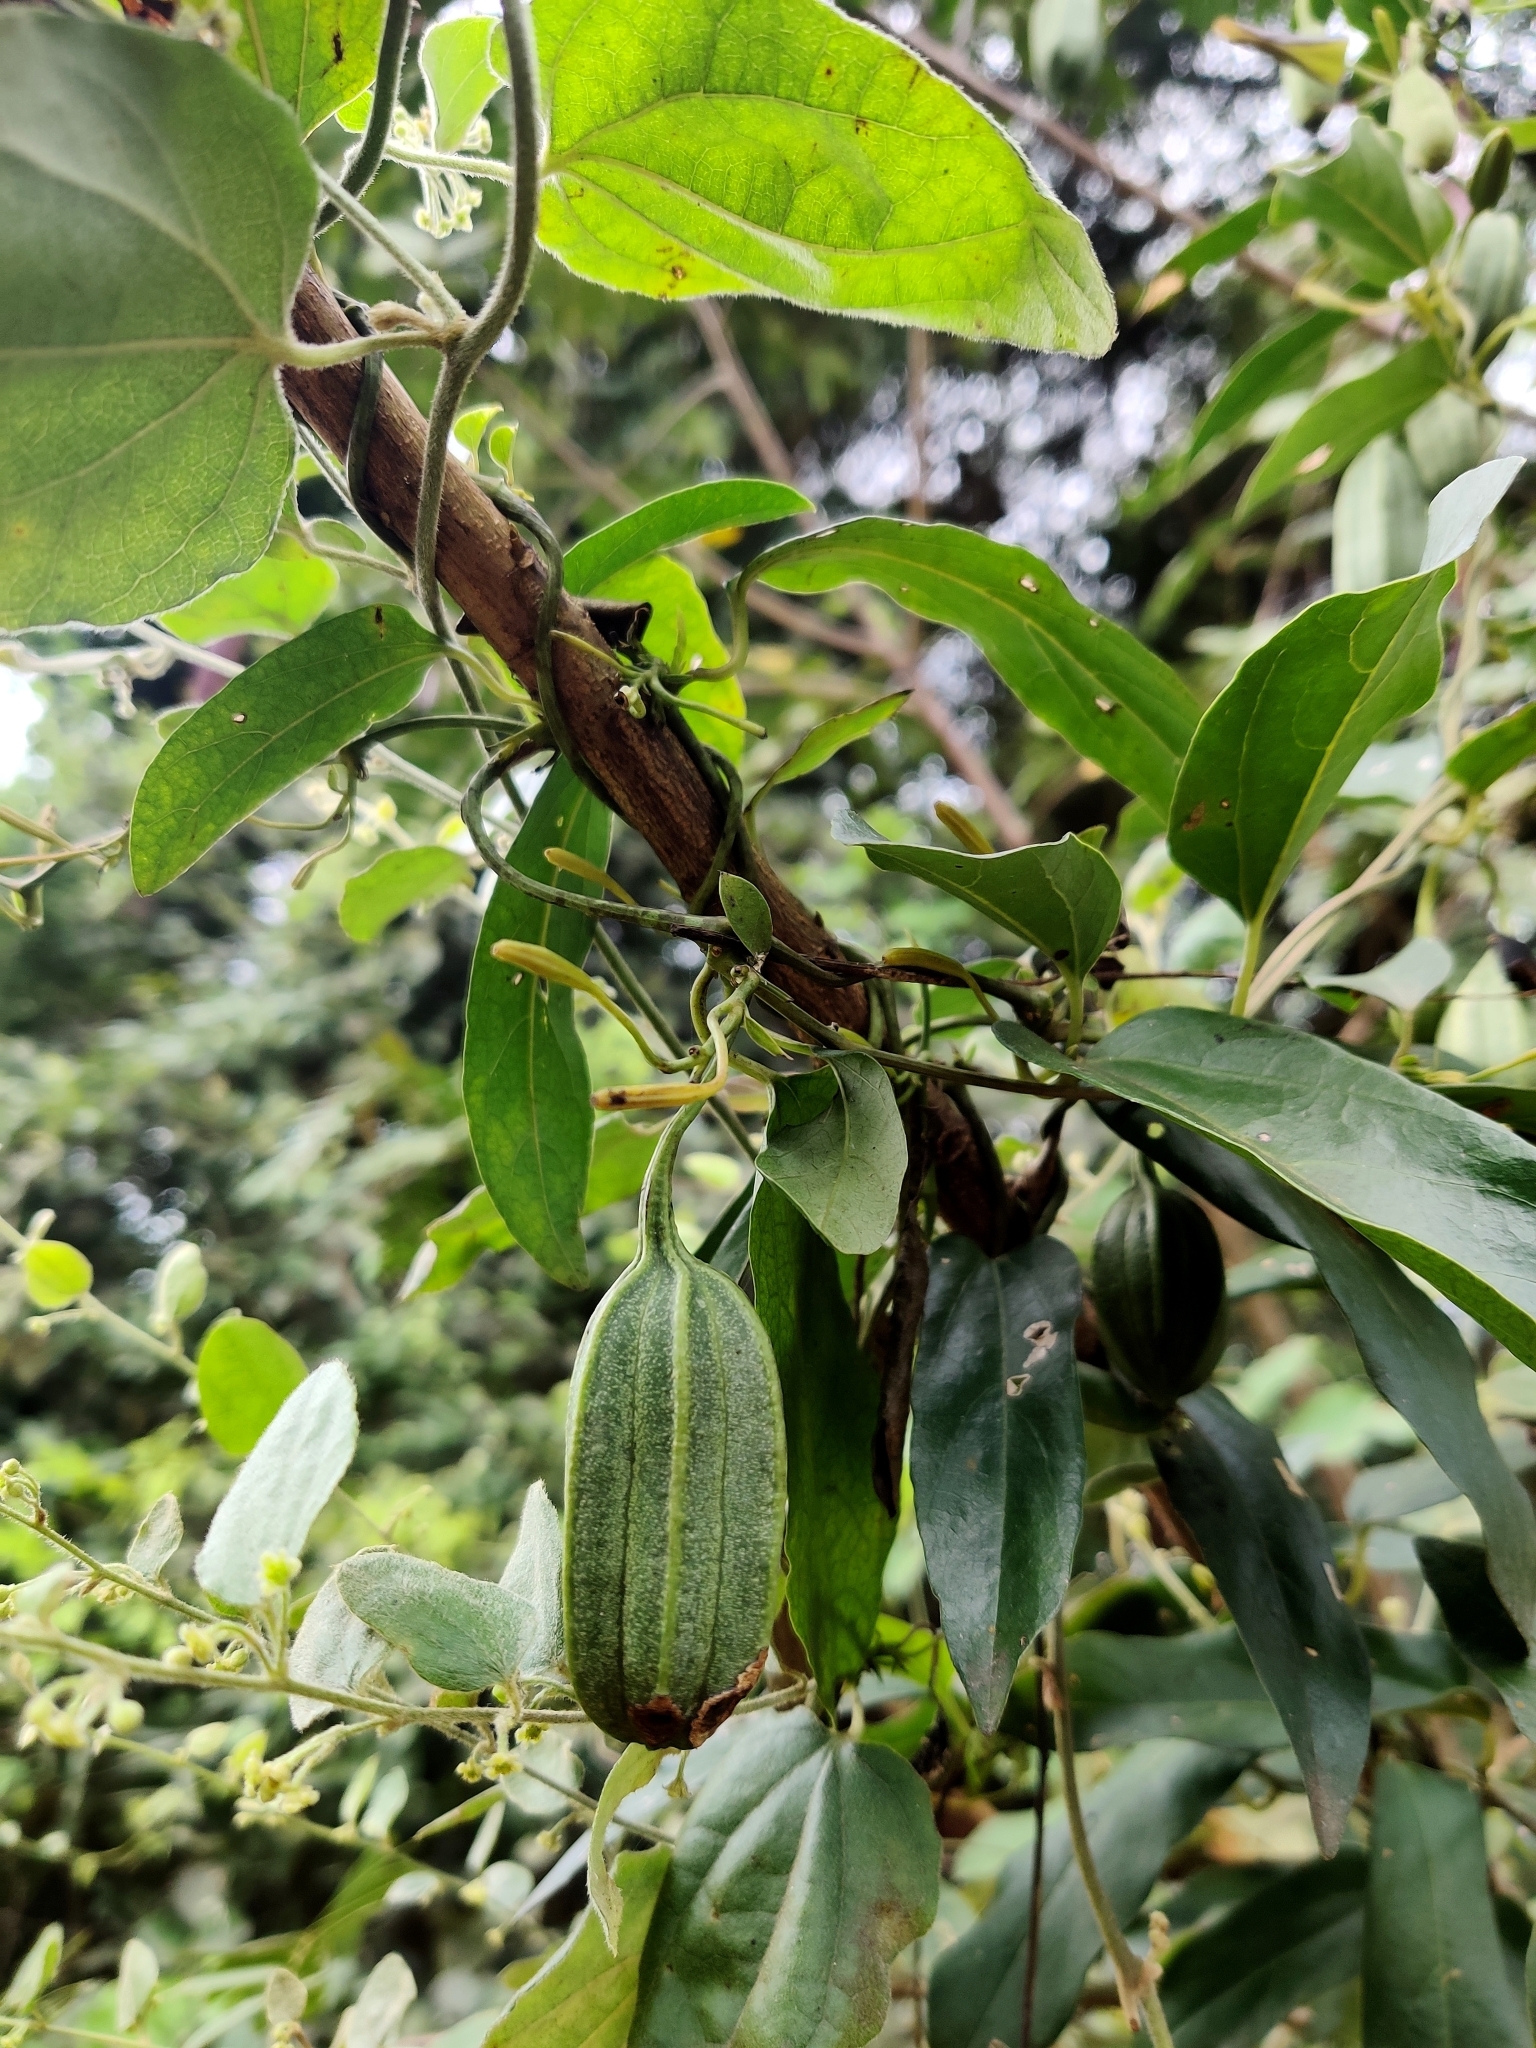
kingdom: Plantae
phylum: Tracheophyta
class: Magnoliopsida
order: Piperales
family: Aristolochiaceae
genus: Aristolochia
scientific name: Aristolochia indica
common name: Indian birthwort
